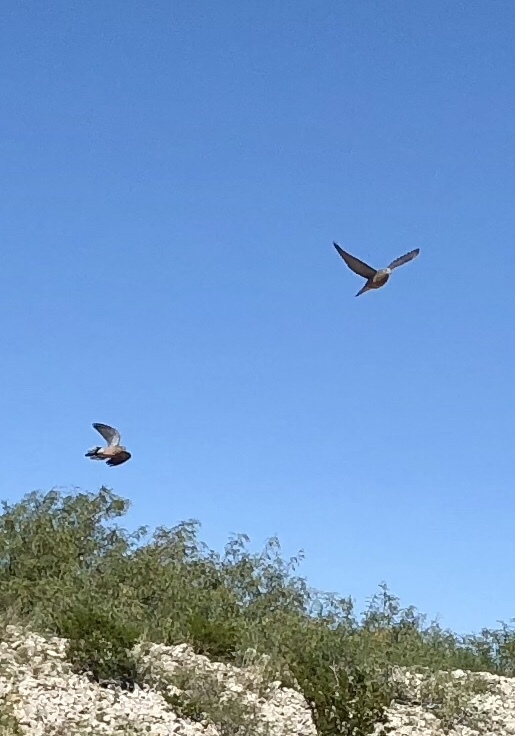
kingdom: Animalia
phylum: Chordata
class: Aves
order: Columbiformes
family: Columbidae
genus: Zenaida
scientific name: Zenaida macroura
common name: Mourning dove
